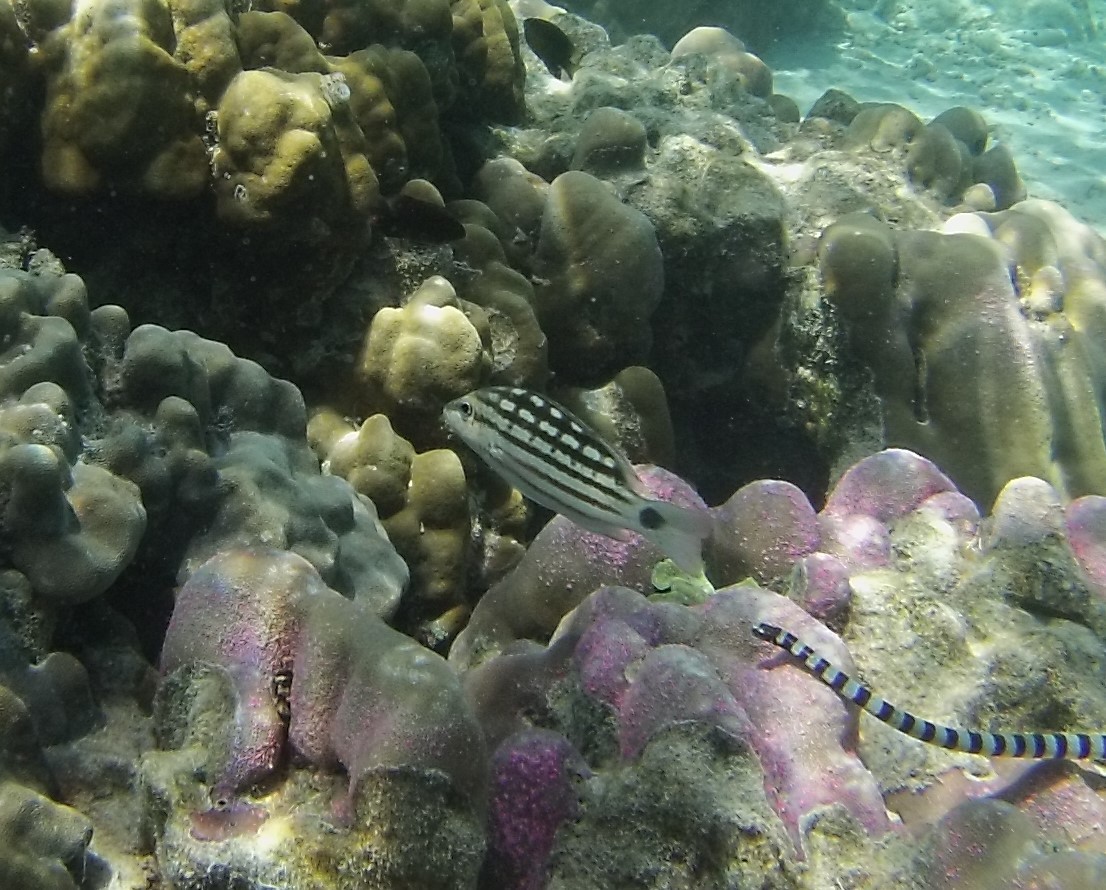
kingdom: Animalia
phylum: Chordata
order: Perciformes
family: Lutjanidae
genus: Lutjanus
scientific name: Lutjanus decussatus
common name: Checkered snapper
